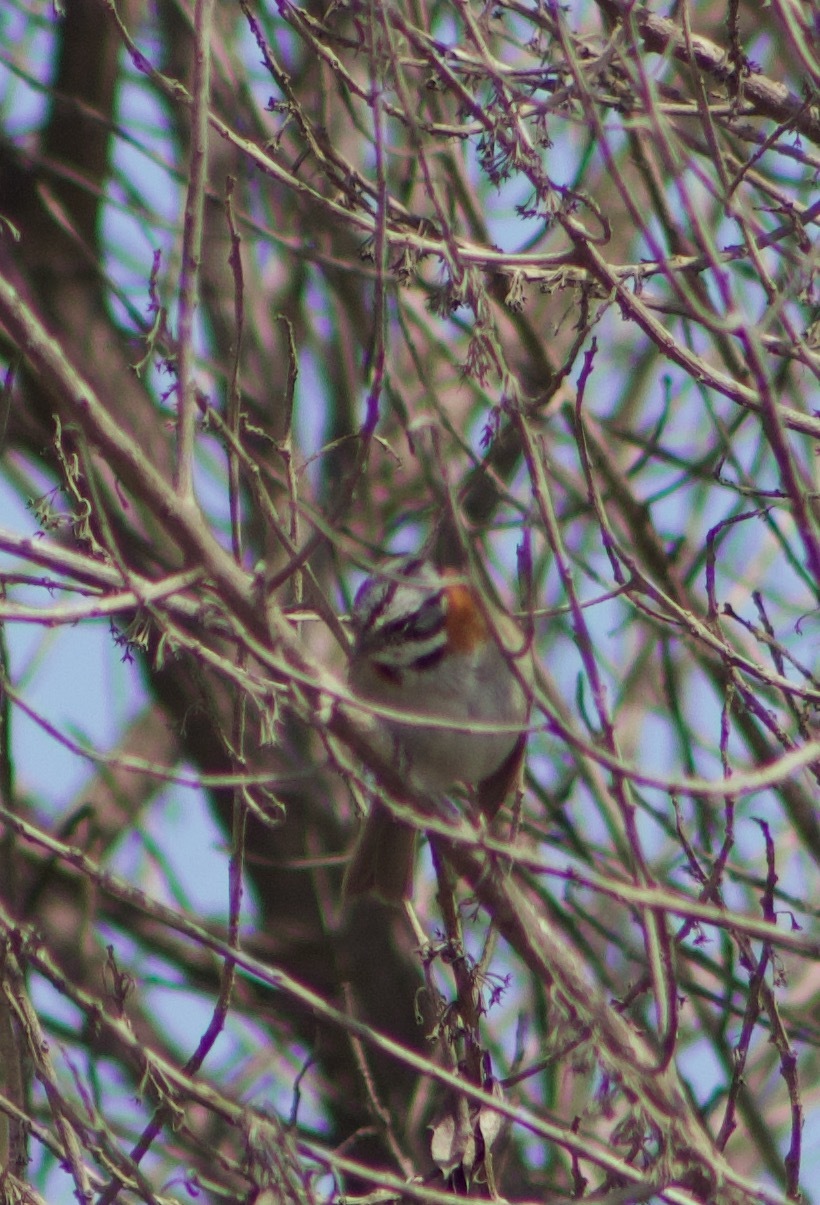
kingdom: Animalia
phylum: Chordata
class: Aves
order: Passeriformes
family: Passerellidae
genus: Zonotrichia
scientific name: Zonotrichia capensis
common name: Rufous-collared sparrow
